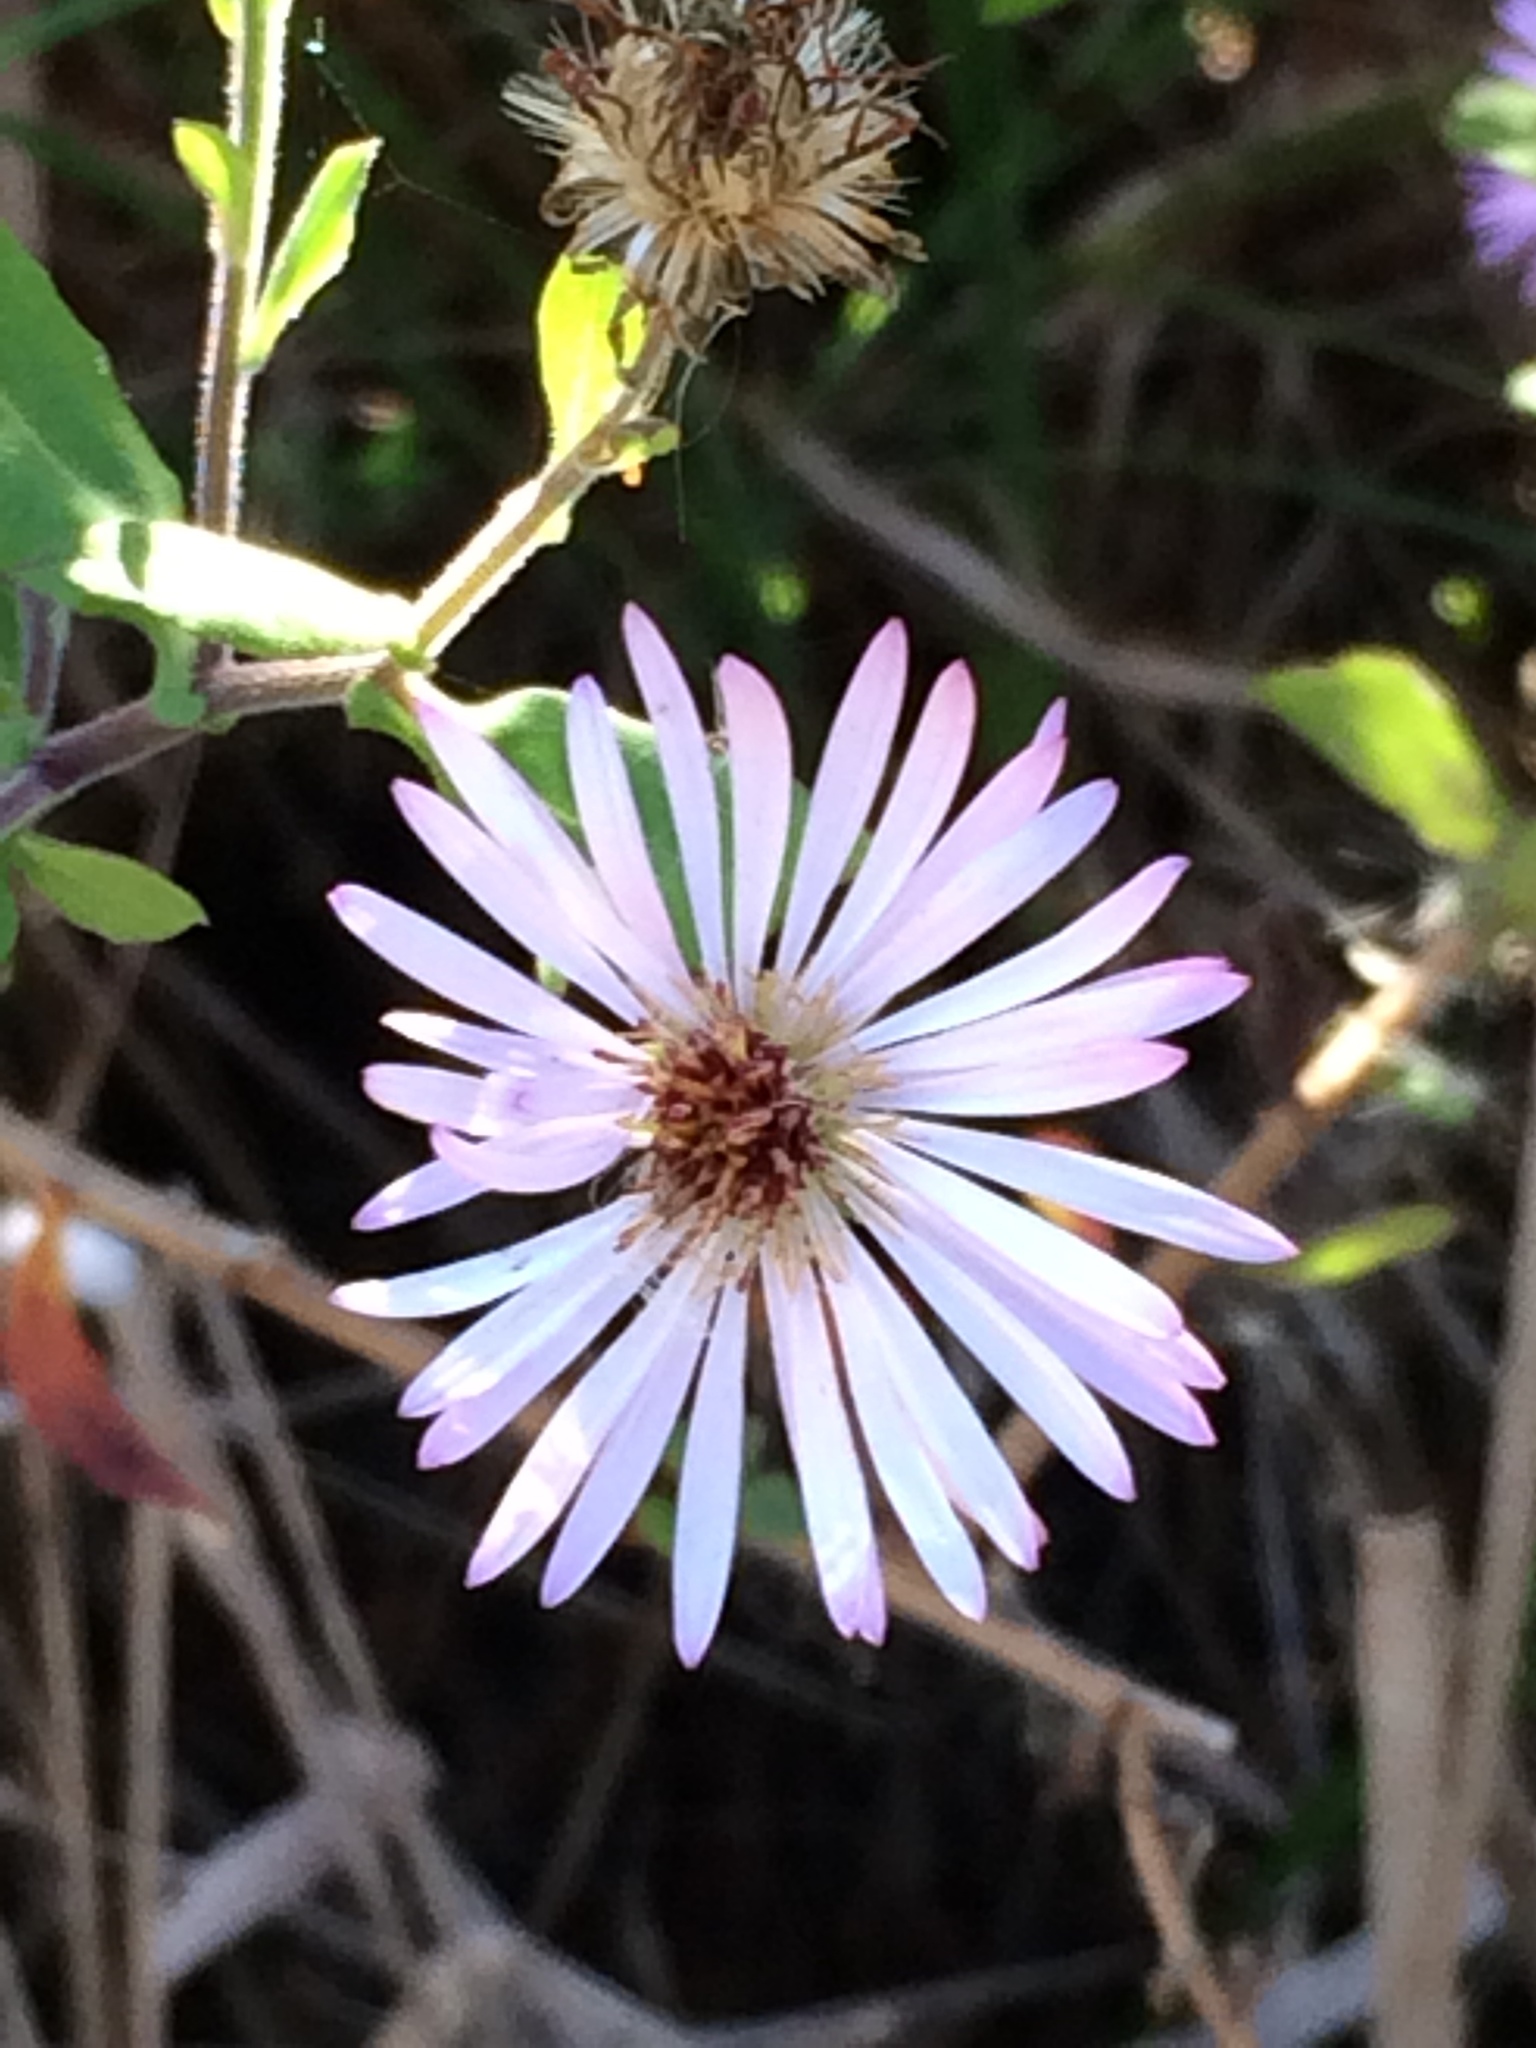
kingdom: Plantae
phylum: Tracheophyta
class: Magnoliopsida
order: Asterales
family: Asteraceae
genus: Ampelaster
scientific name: Ampelaster carolinianus
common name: Climbing aster
